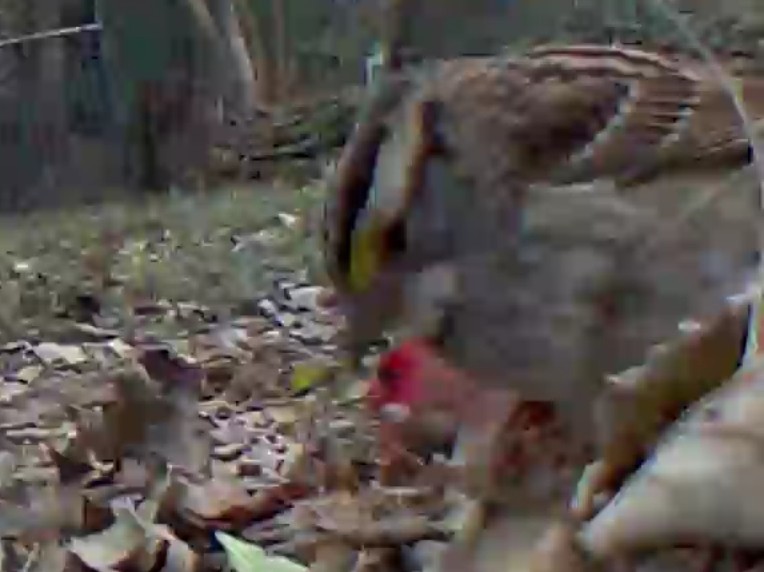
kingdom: Animalia
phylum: Chordata
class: Aves
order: Passeriformes
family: Passerellidae
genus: Zonotrichia
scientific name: Zonotrichia albicollis
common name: White-throated sparrow
